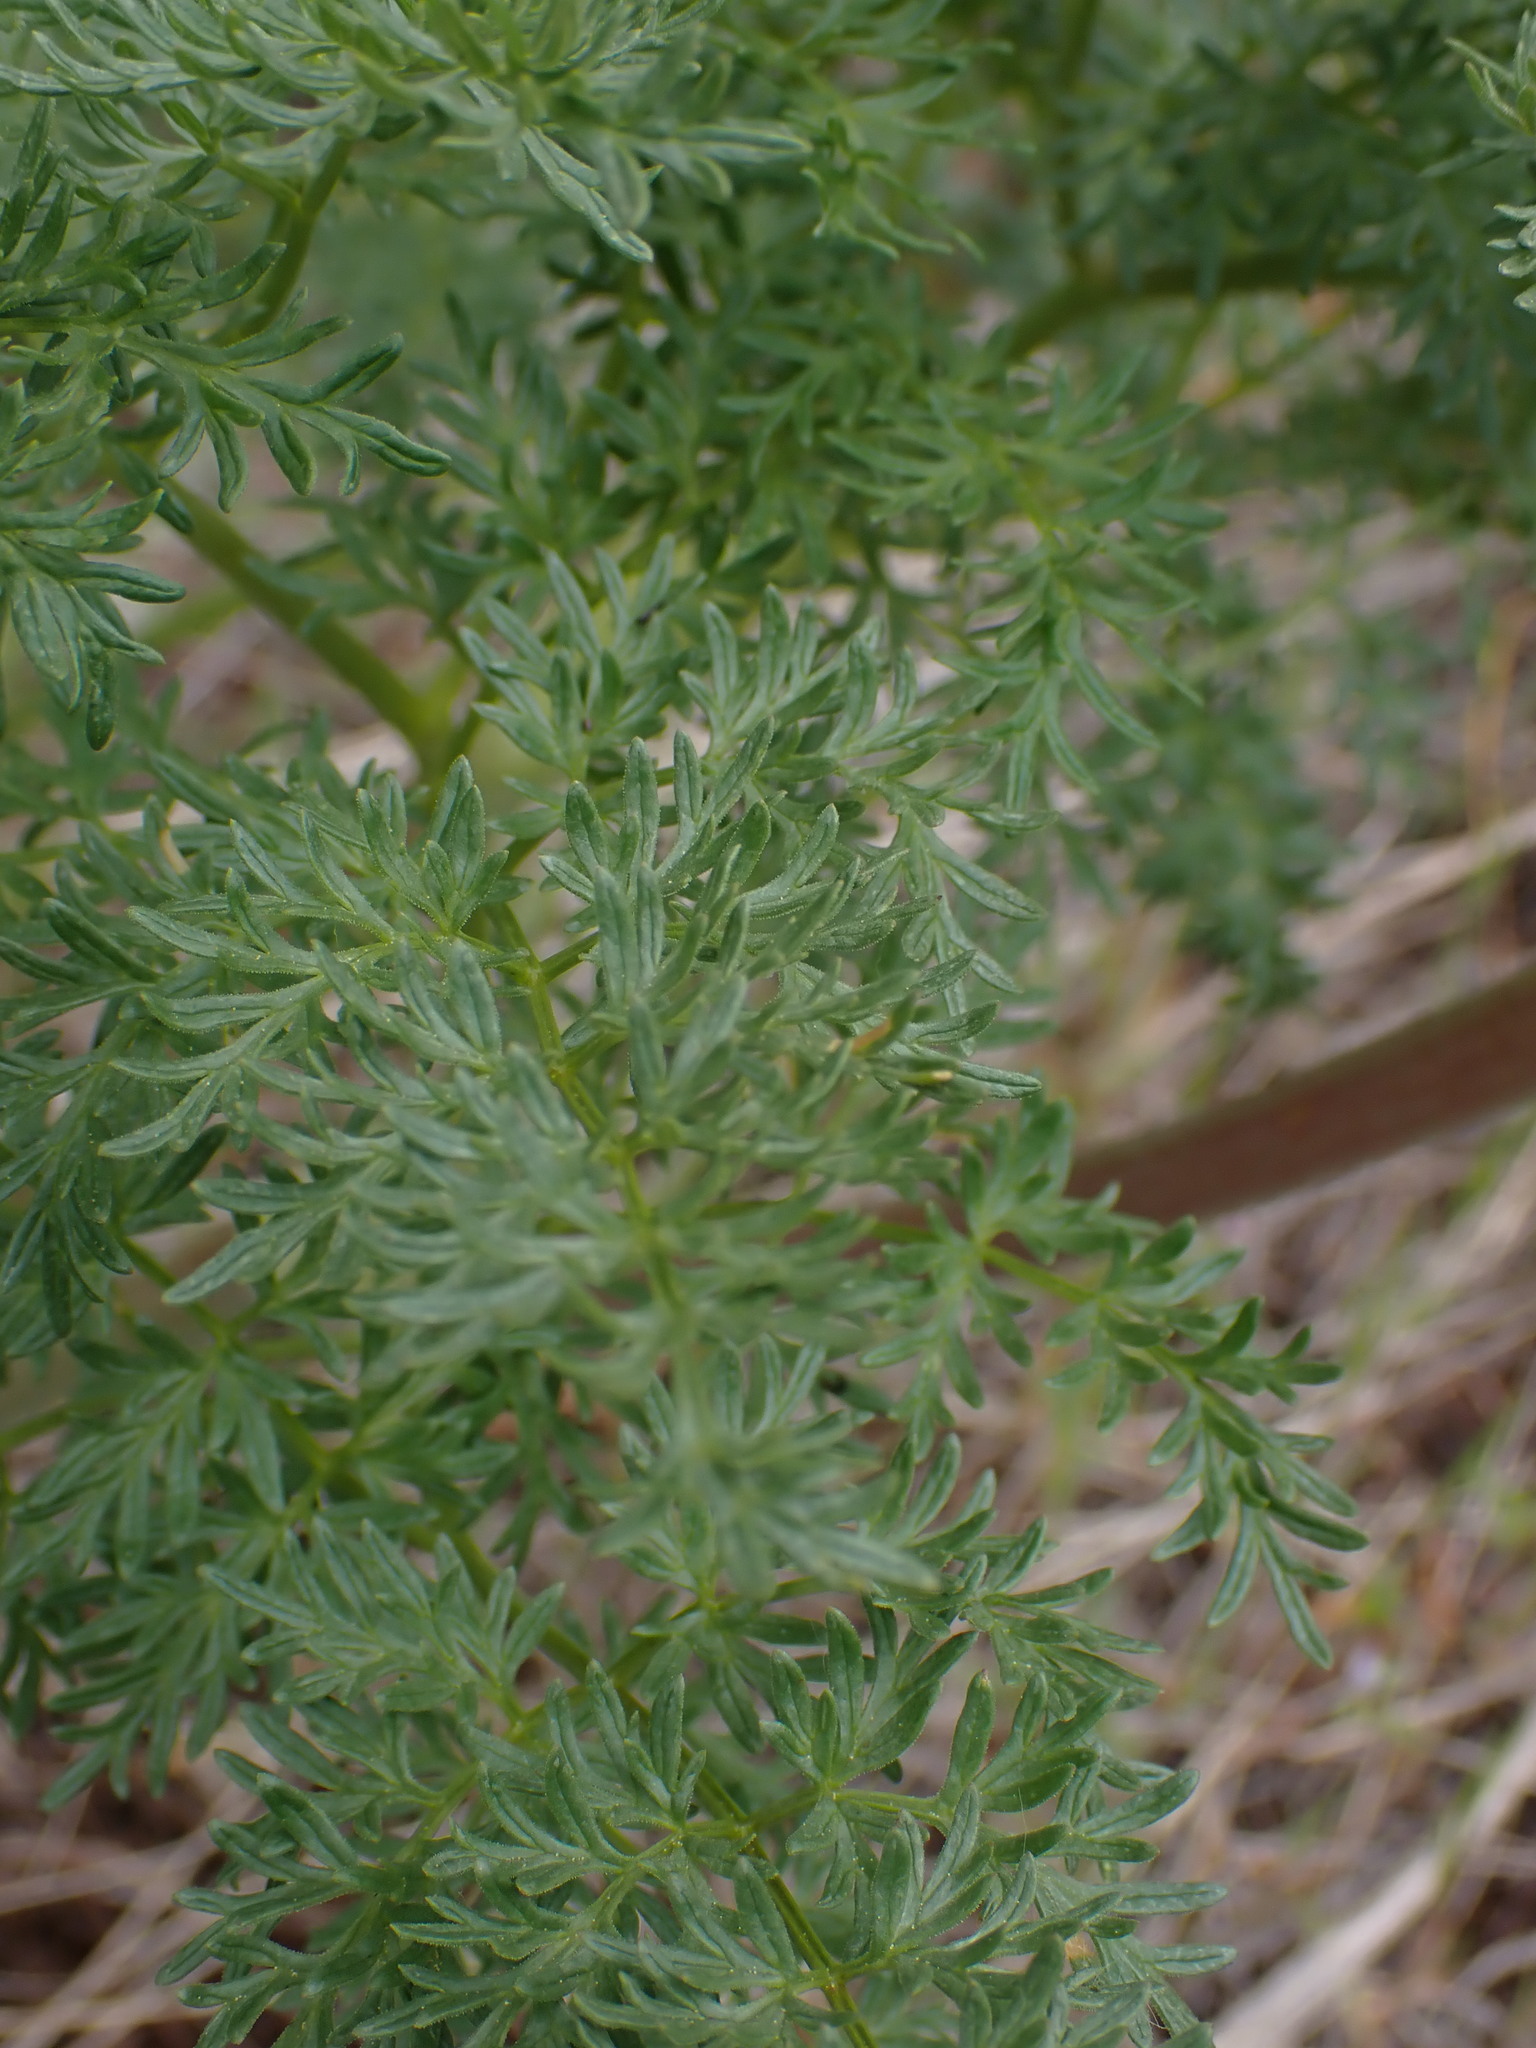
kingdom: Plantae
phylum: Tracheophyta
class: Magnoliopsida
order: Apiales
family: Apiaceae
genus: Lomatium
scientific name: Lomatium multifidum
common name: Carrot-leaved biscuitroot
